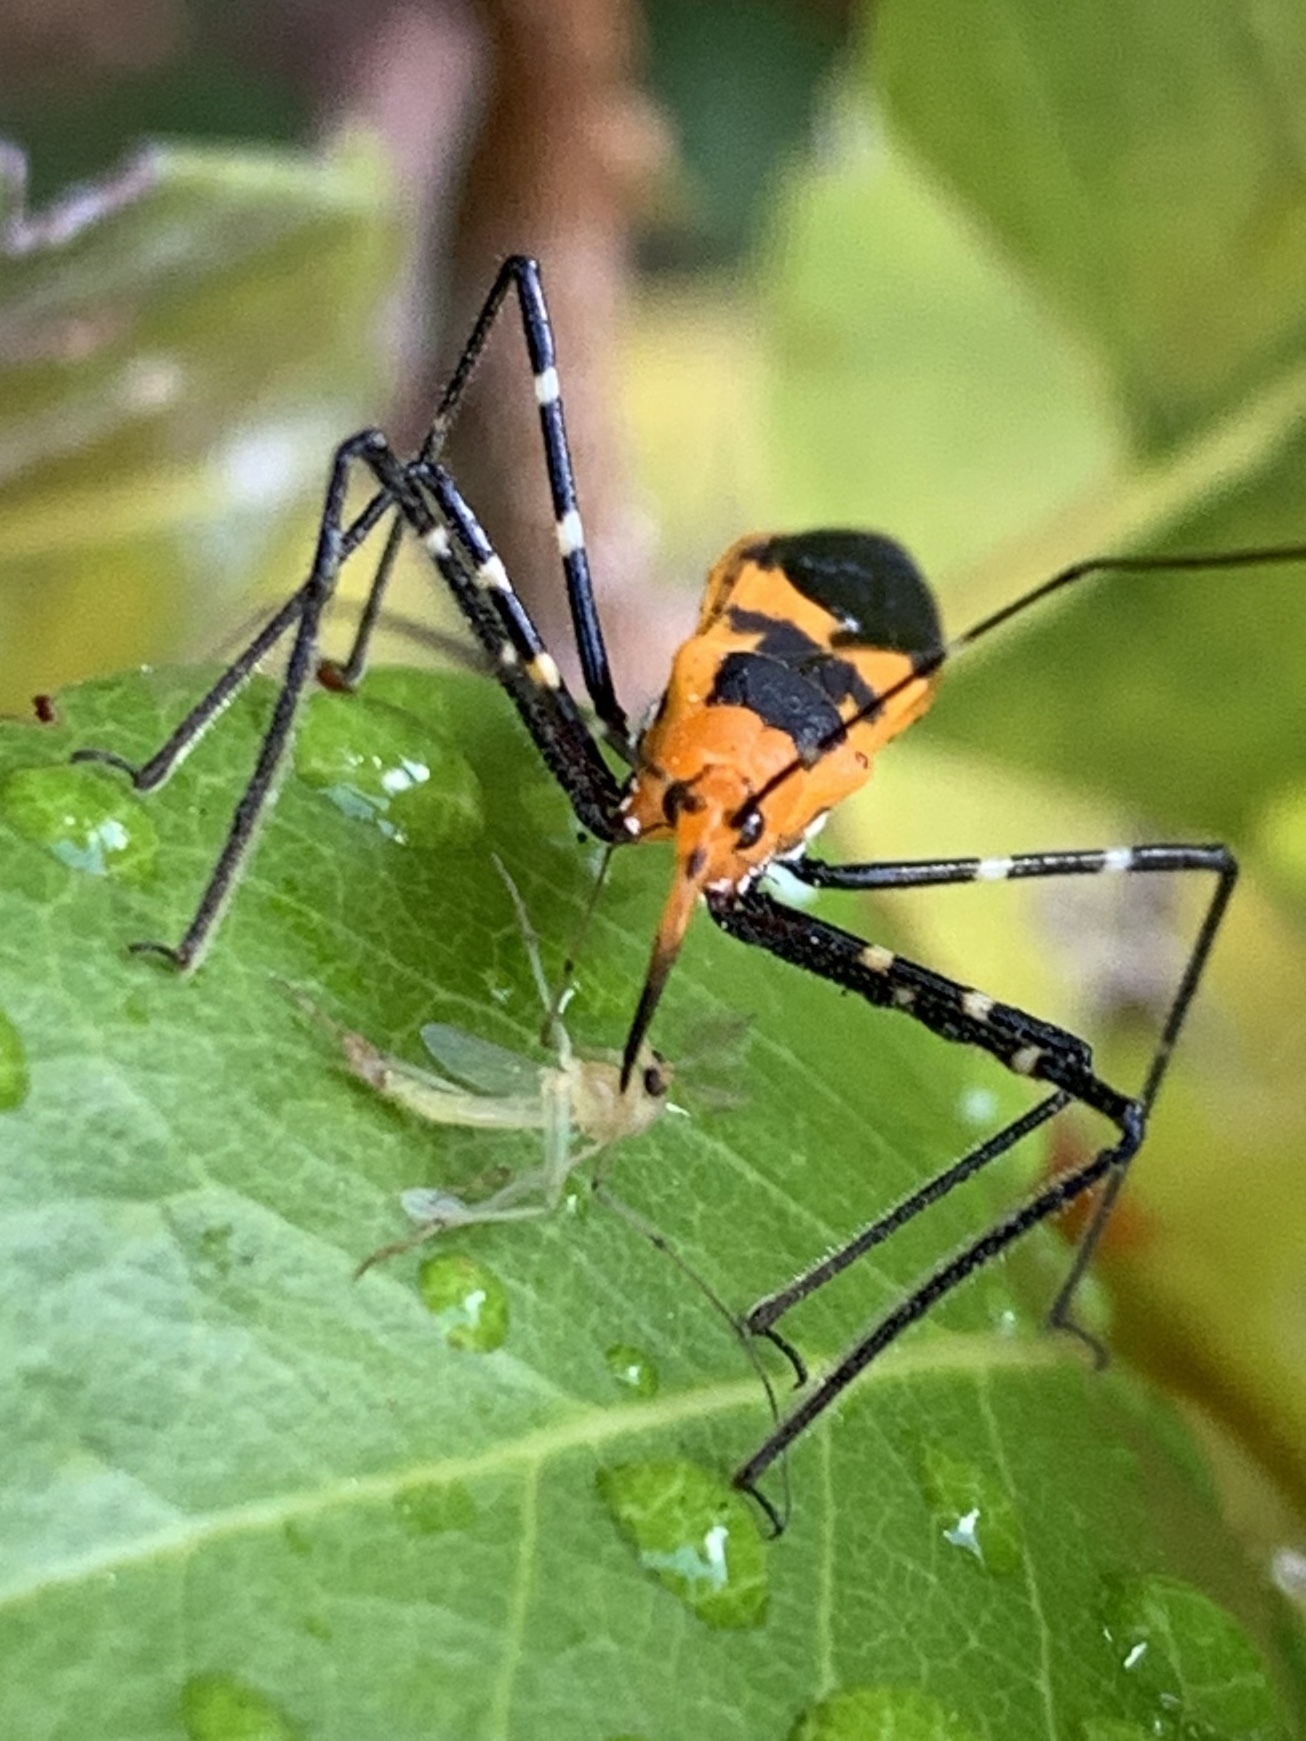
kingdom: Animalia
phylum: Arthropoda
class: Insecta
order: Hemiptera
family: Reduviidae
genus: Zelus
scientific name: Zelus longipes
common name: Milkweed assassin bug
